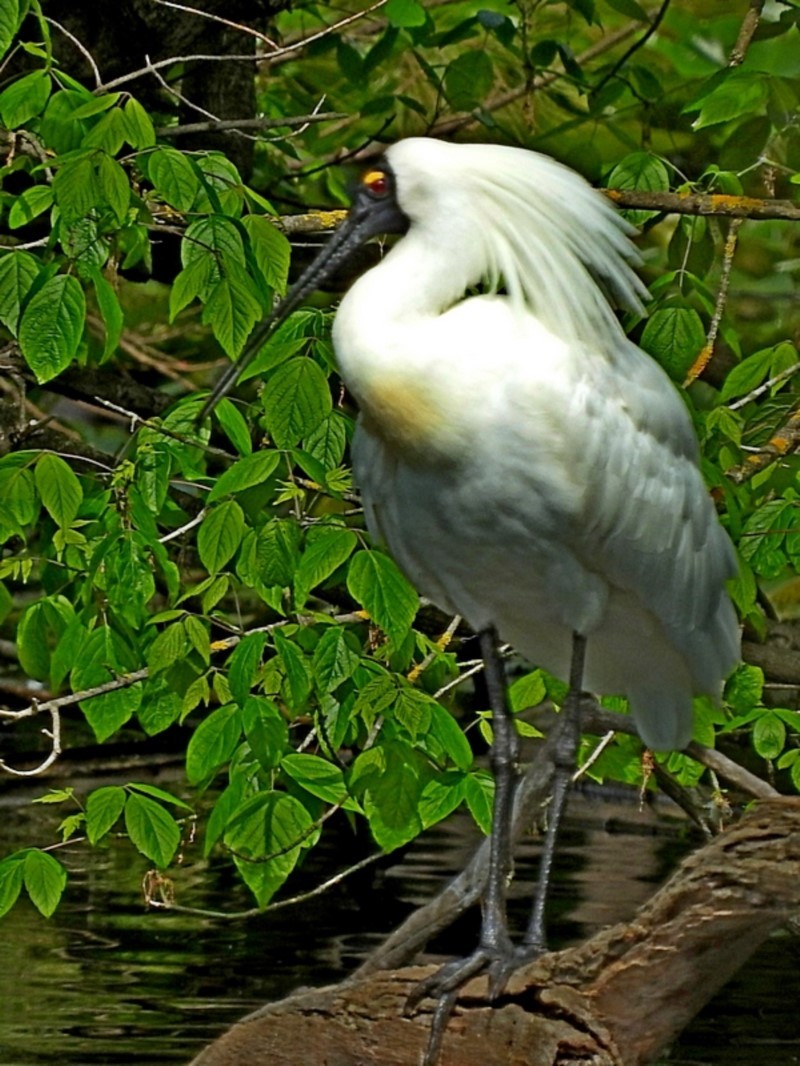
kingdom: Animalia
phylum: Chordata
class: Aves
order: Pelecaniformes
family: Threskiornithidae
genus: Platalea
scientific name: Platalea regia
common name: Royal spoonbill
